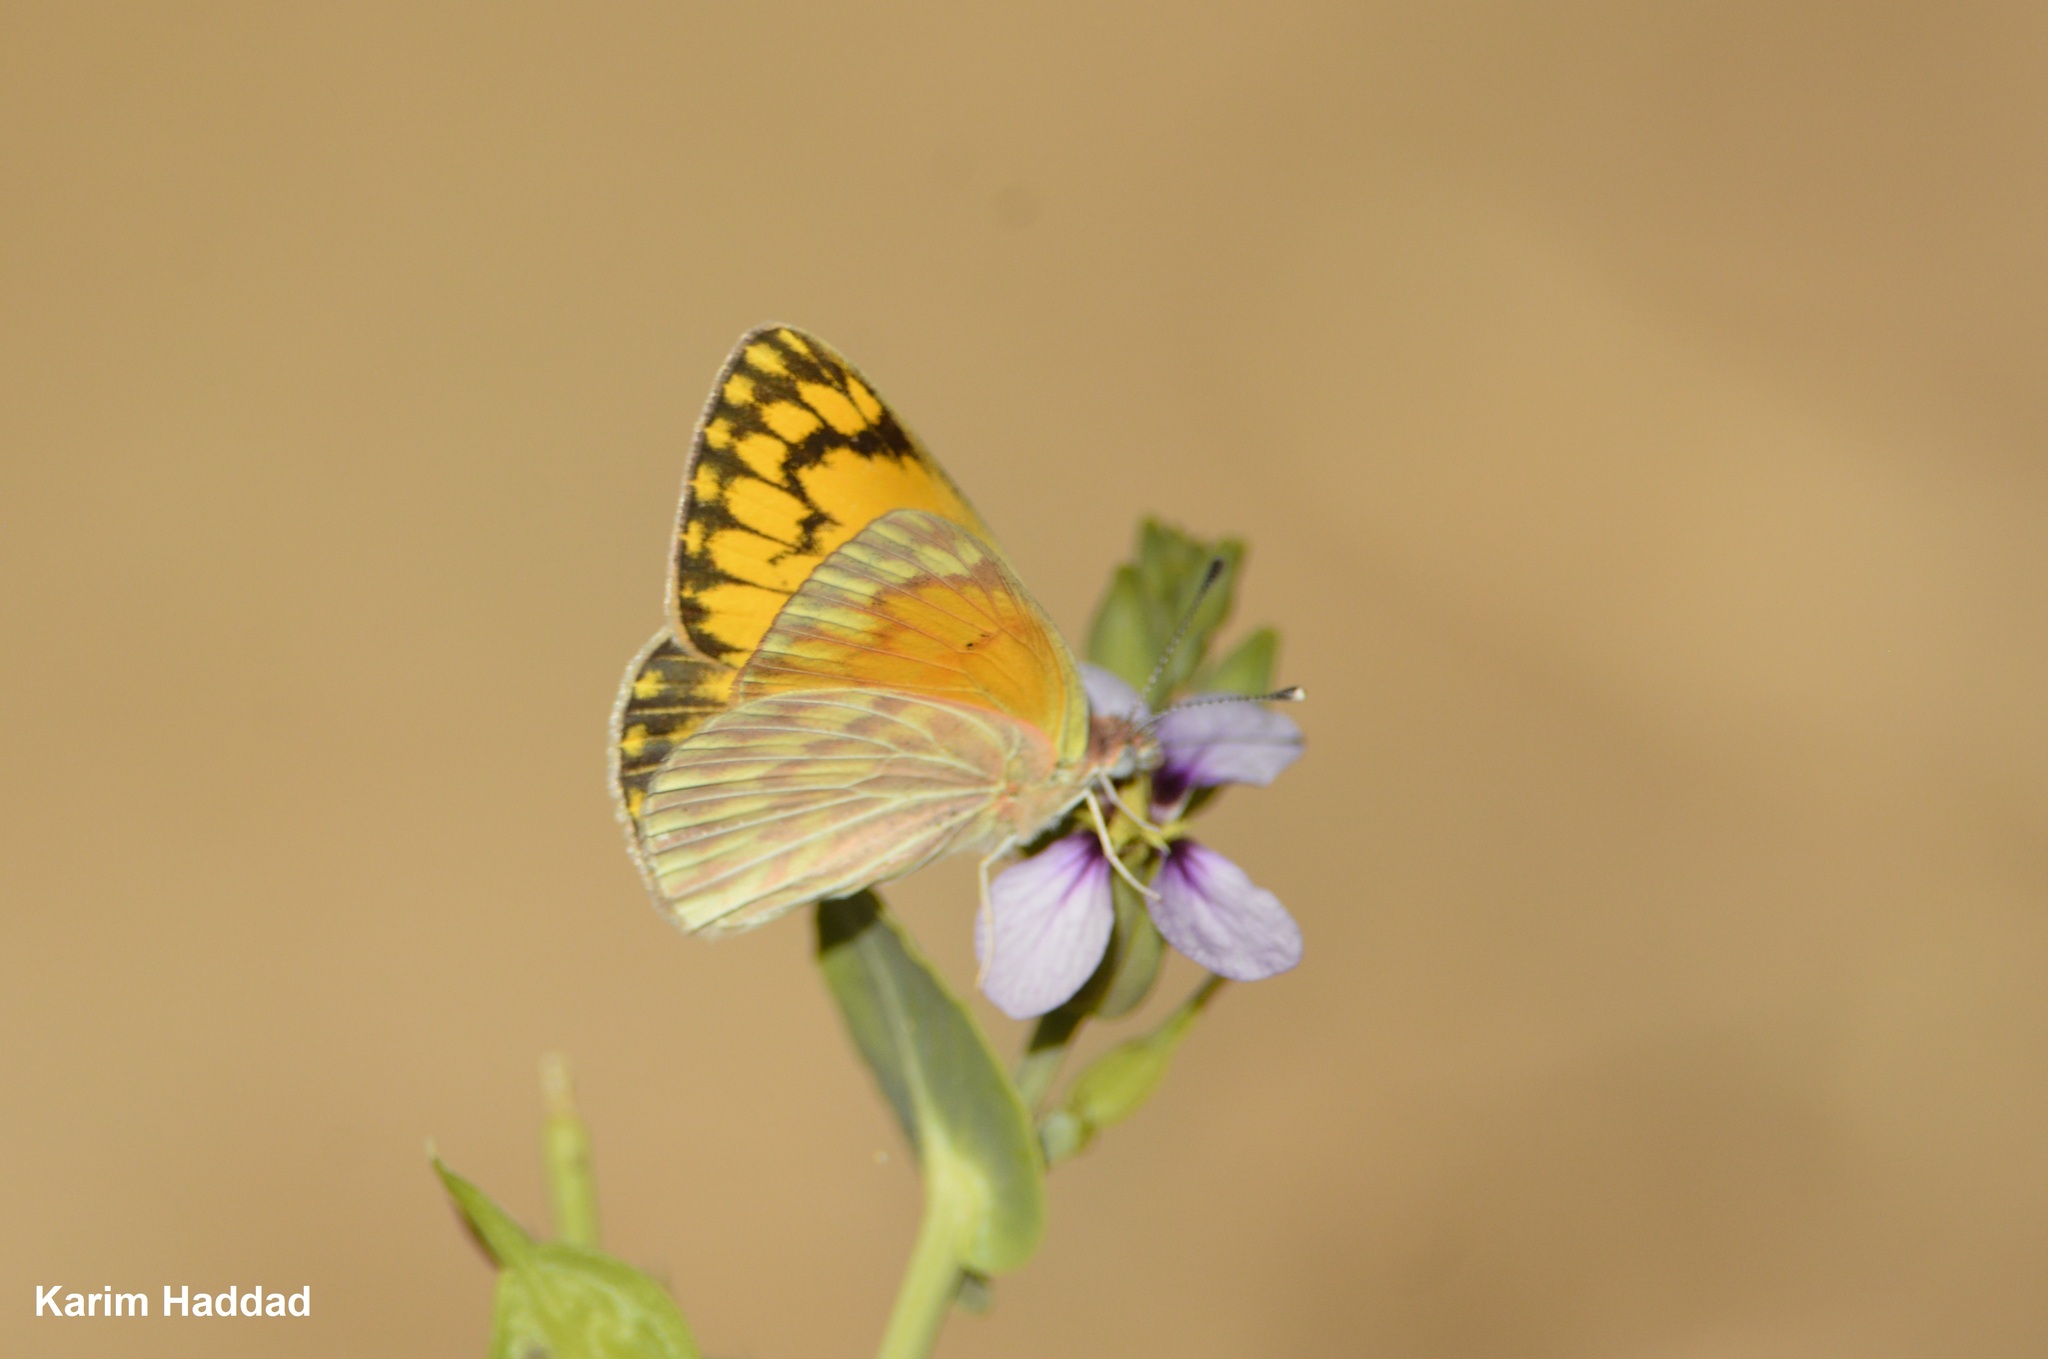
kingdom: Animalia
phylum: Arthropoda
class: Insecta
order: Lepidoptera
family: Pieridae
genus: Colotis
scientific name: Colotis chrysonome
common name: Golden arab
